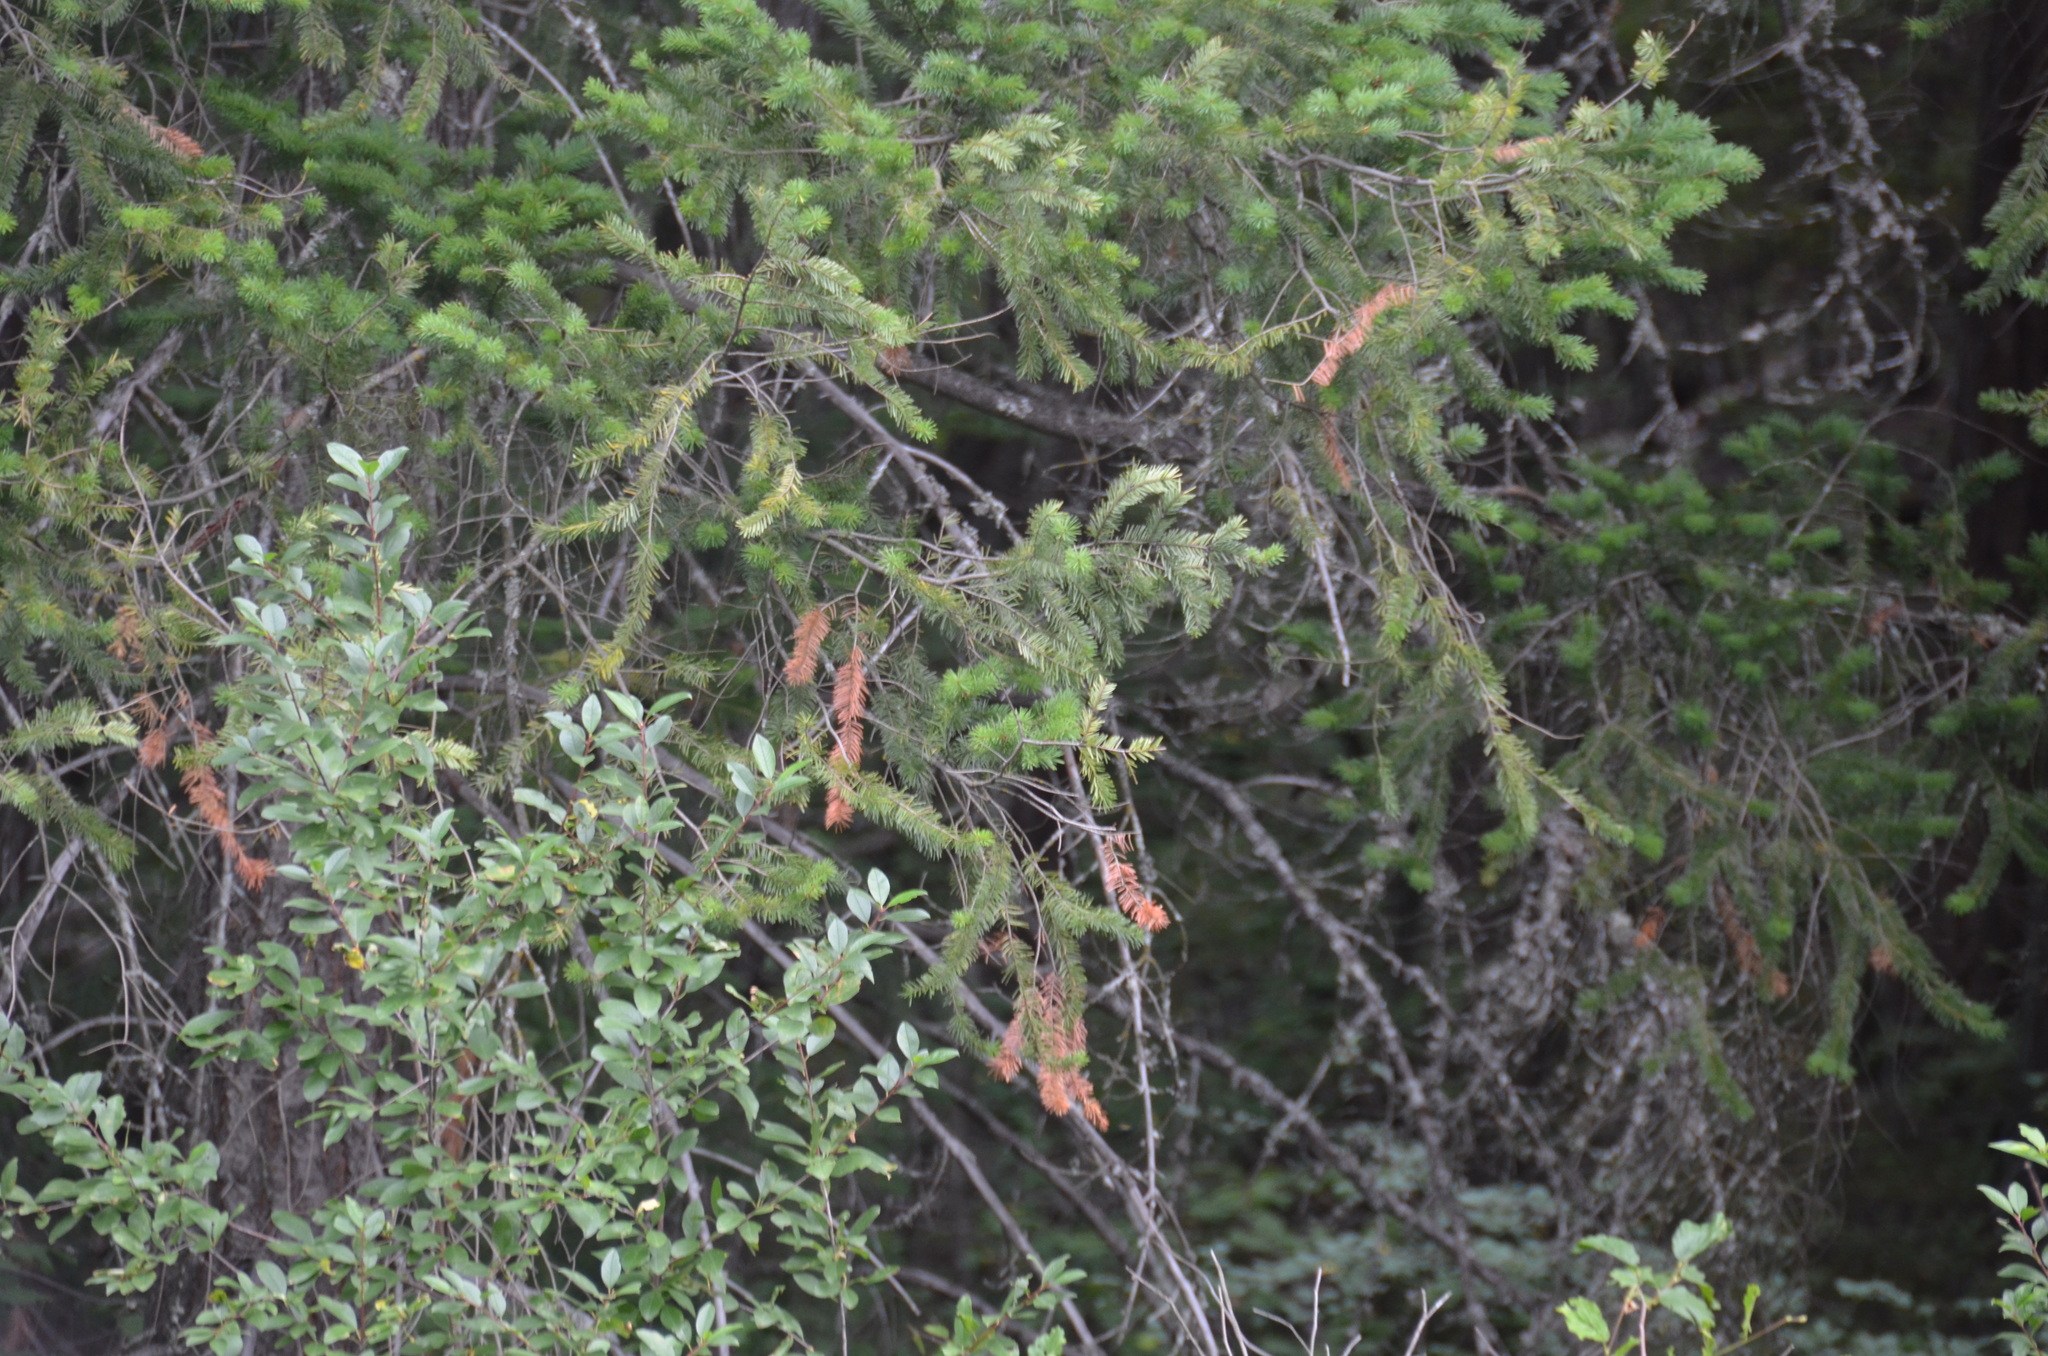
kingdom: Plantae
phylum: Tracheophyta
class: Pinopsida
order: Pinales
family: Pinaceae
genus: Pseudotsuga
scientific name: Pseudotsuga menziesii
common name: Douglas fir
